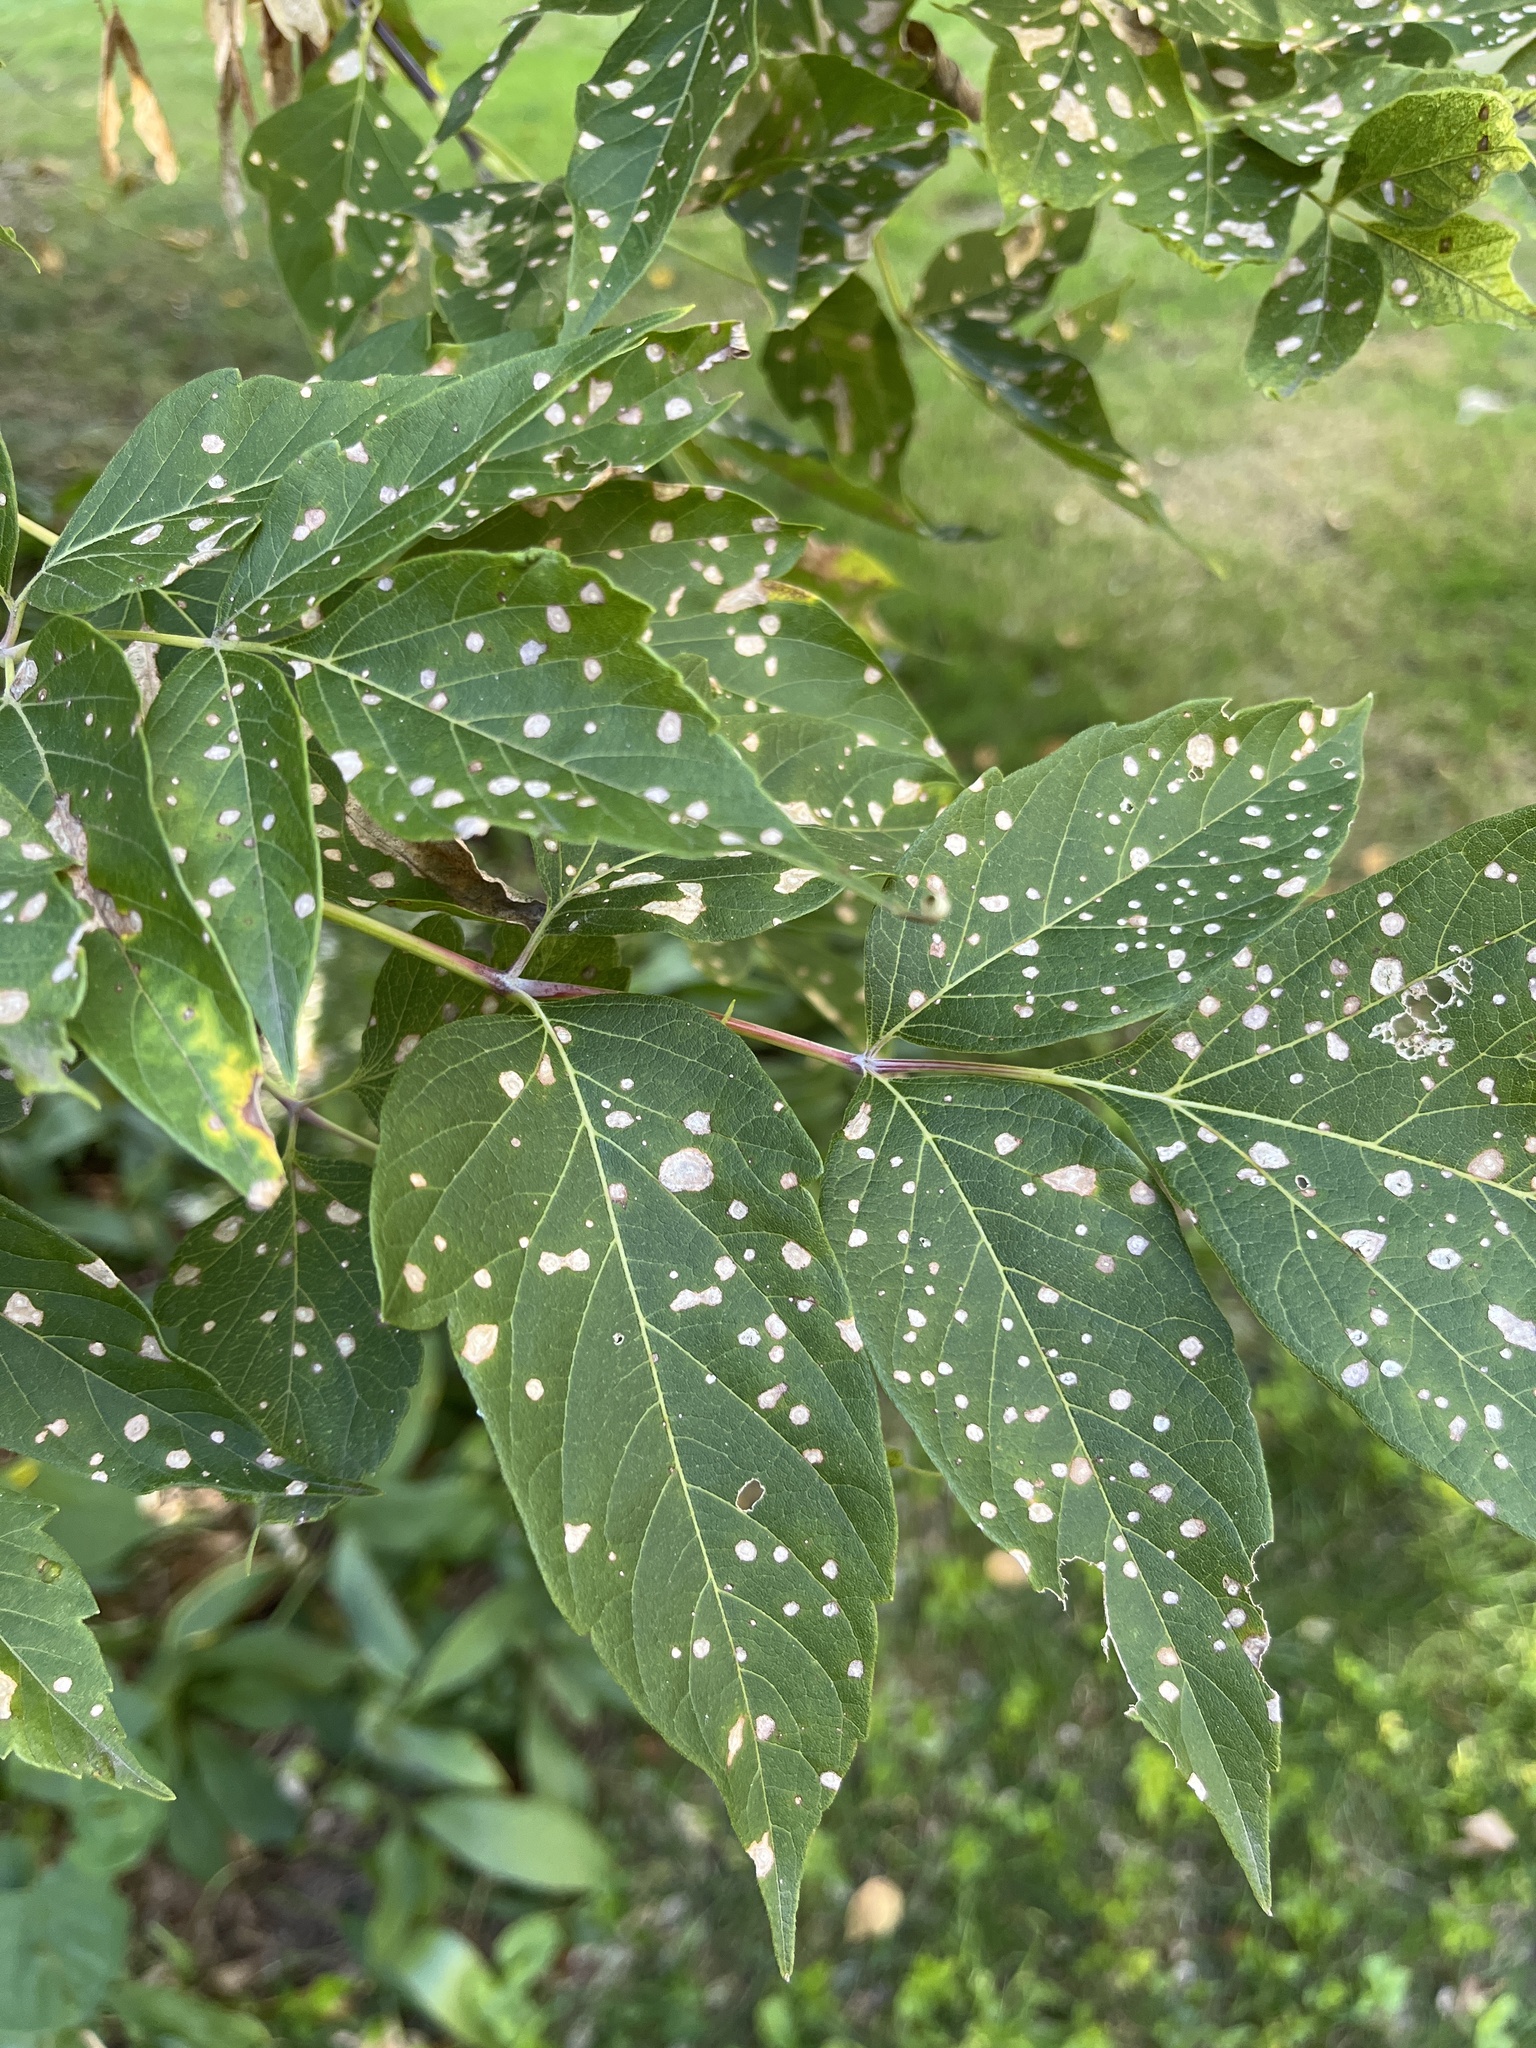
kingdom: Plantae
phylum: Tracheophyta
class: Magnoliopsida
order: Sapindales
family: Sapindaceae
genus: Acer
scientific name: Acer negundo
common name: Ashleaf maple
